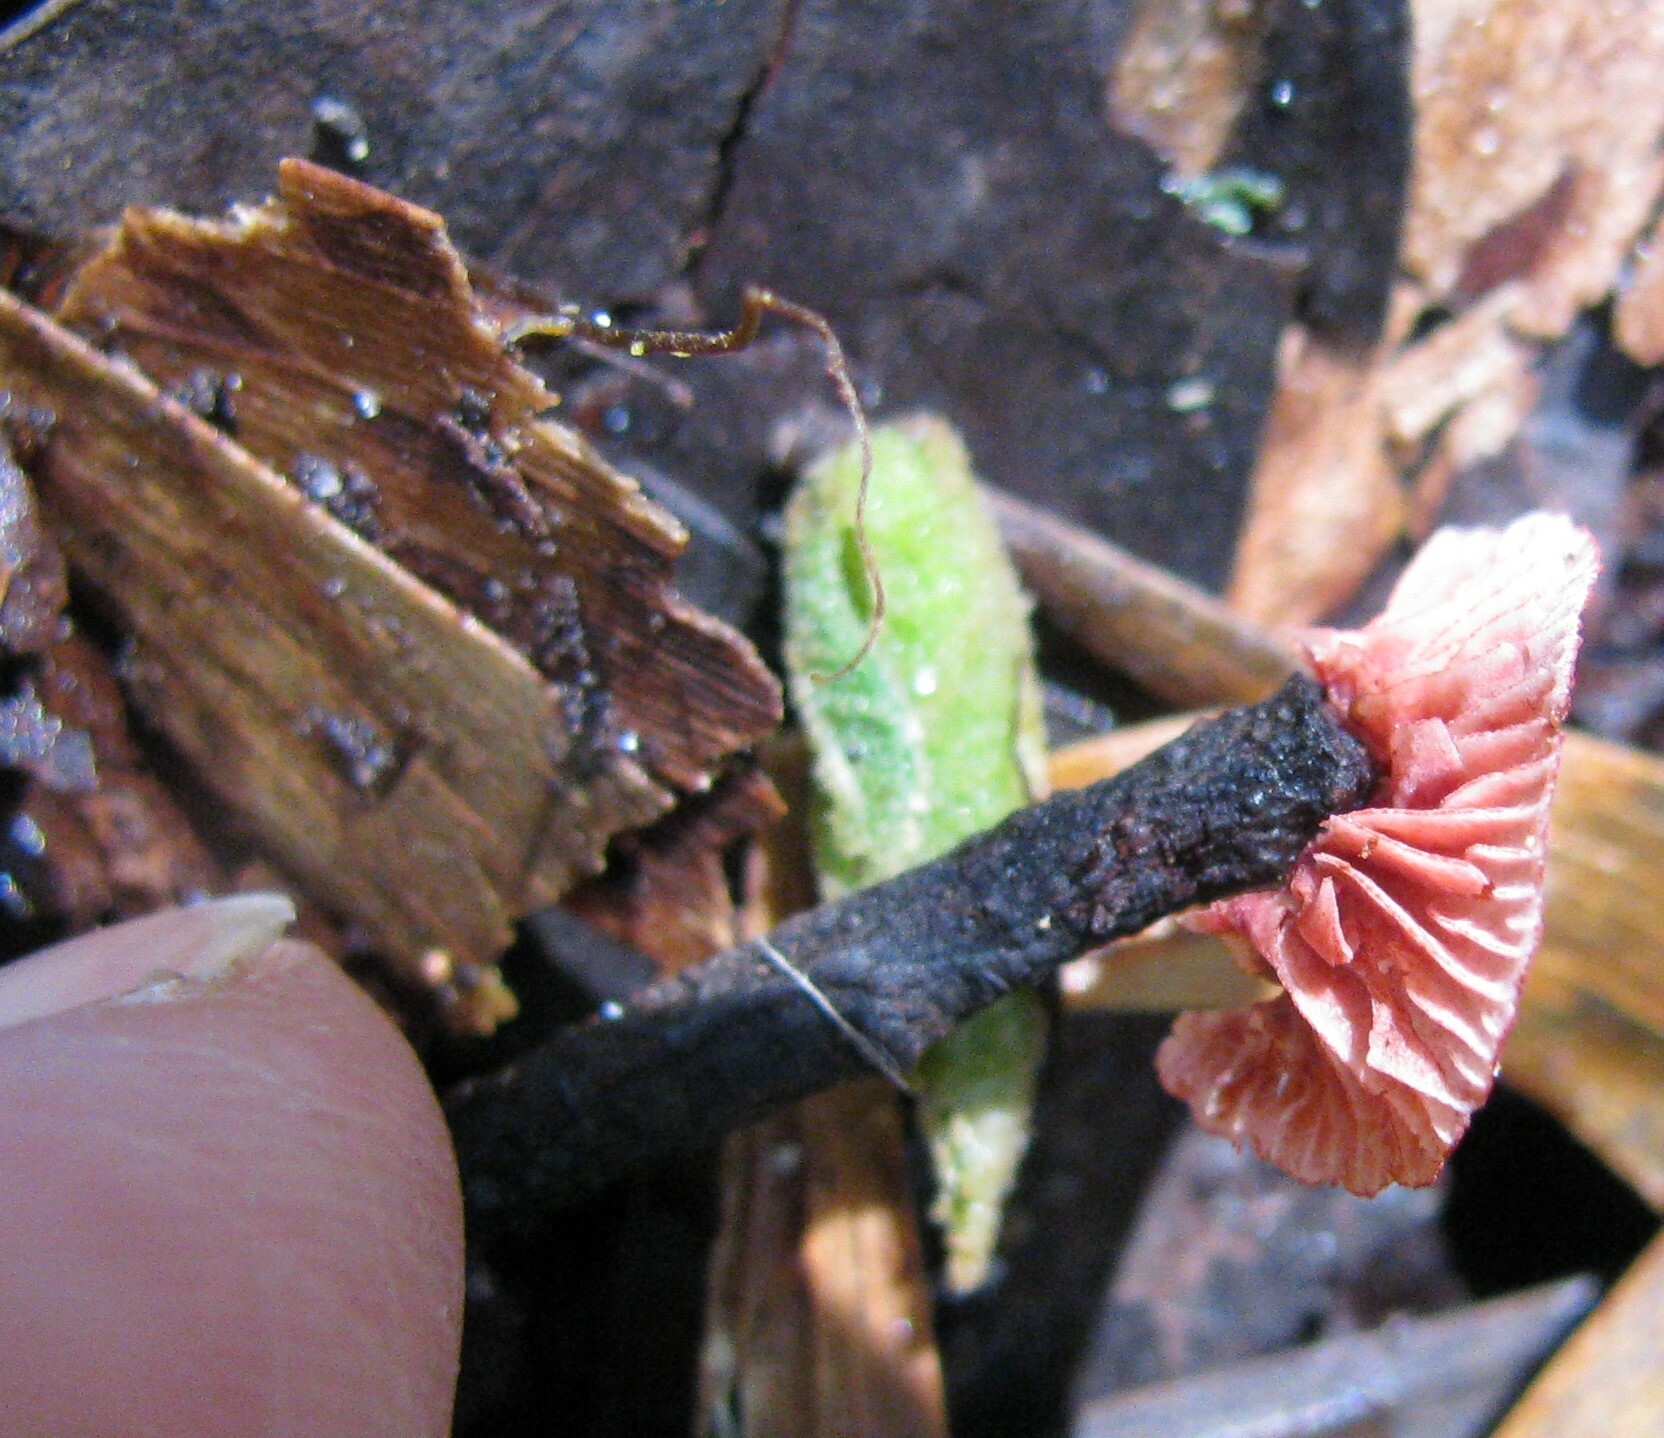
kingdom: Fungi
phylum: Basidiomycota
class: Agaricomycetes
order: Agaricales
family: Mycenaceae
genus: Cruentomycena
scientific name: Cruentomycena viscidocruenta
